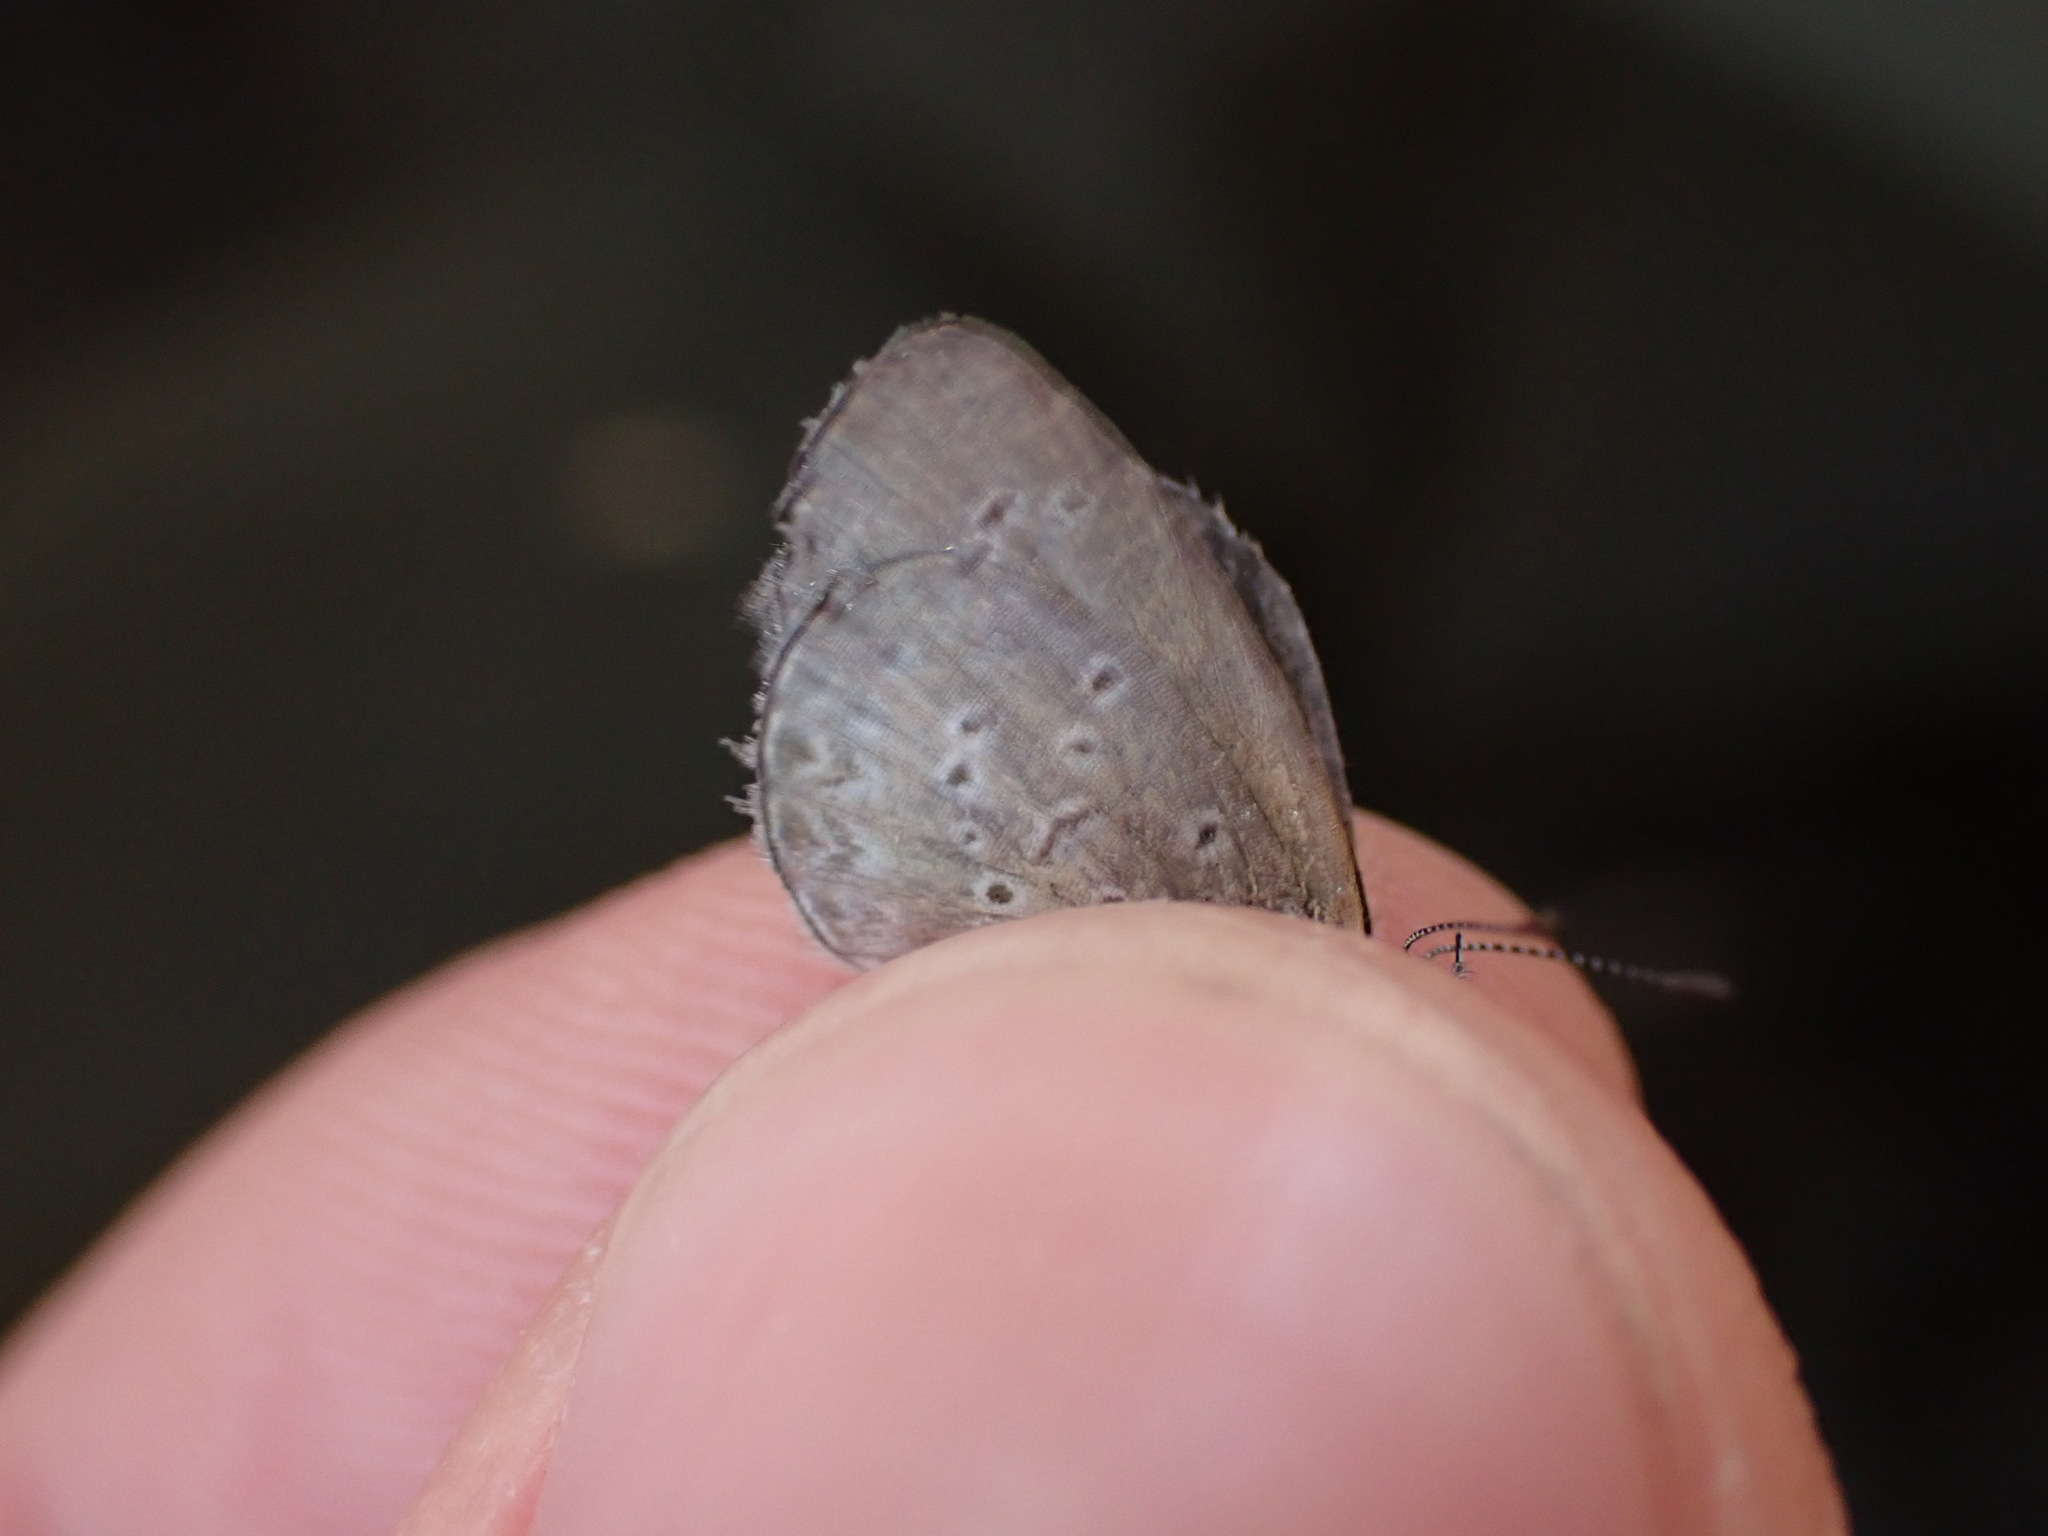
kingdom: Animalia
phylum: Arthropoda
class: Insecta
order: Lepidoptera
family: Lycaenidae
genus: Zizina
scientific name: Zizina otis
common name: Lesser grass blue
